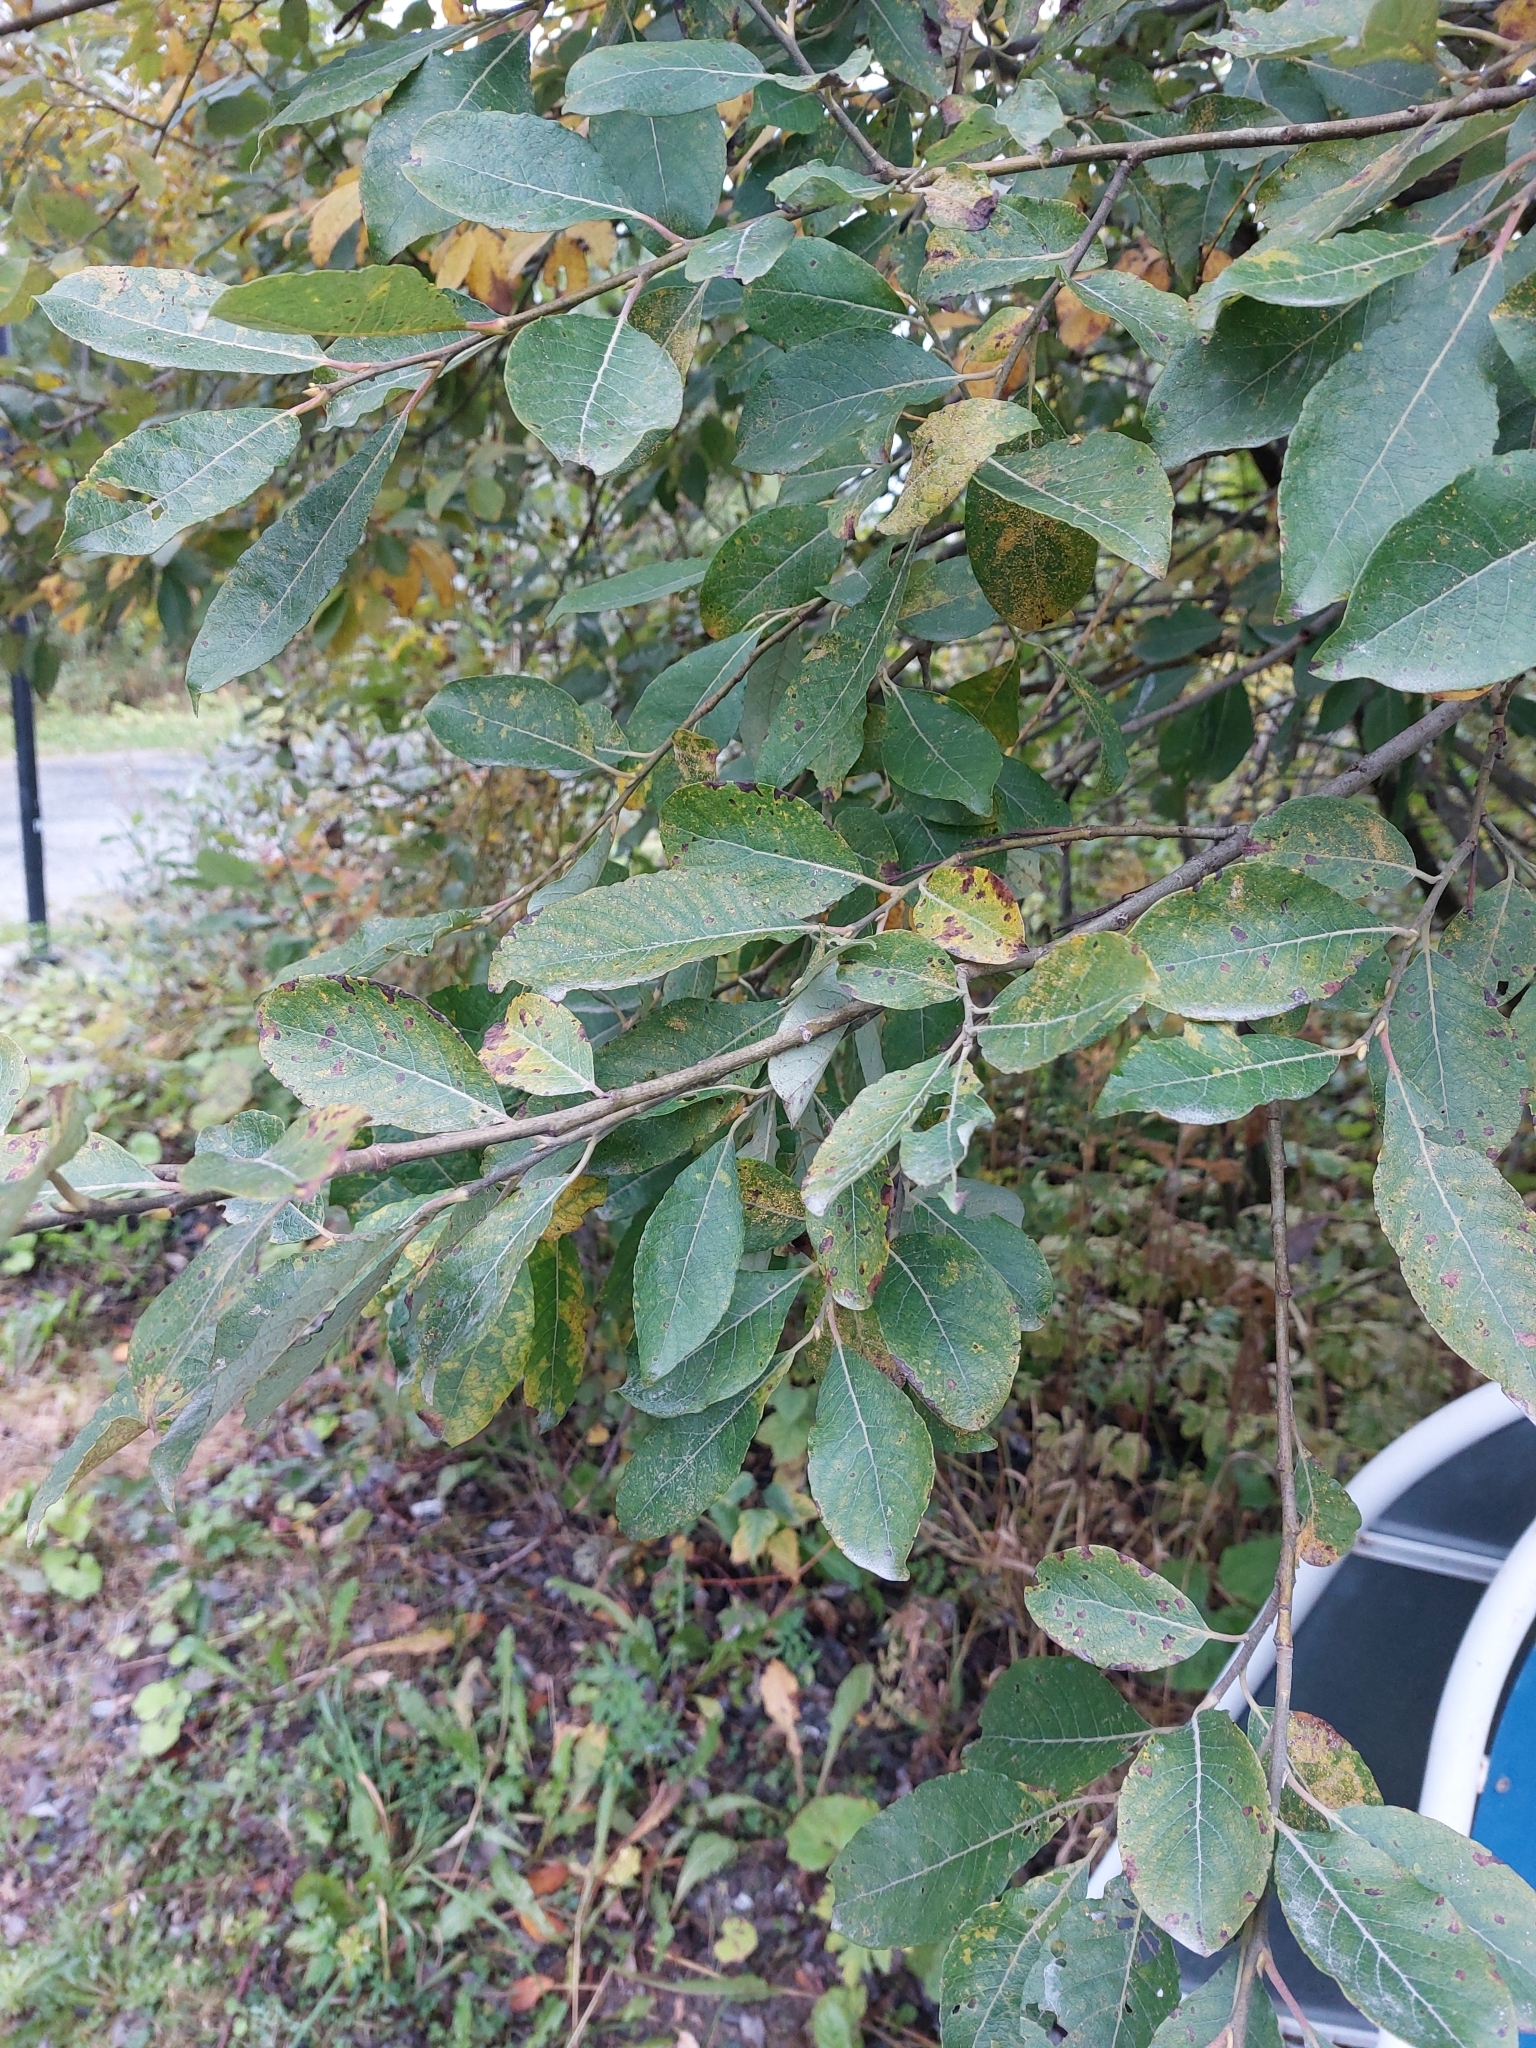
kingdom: Plantae
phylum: Tracheophyta
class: Magnoliopsida
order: Malpighiales
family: Salicaceae
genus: Salix
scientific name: Salix caprea
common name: Goat willow
